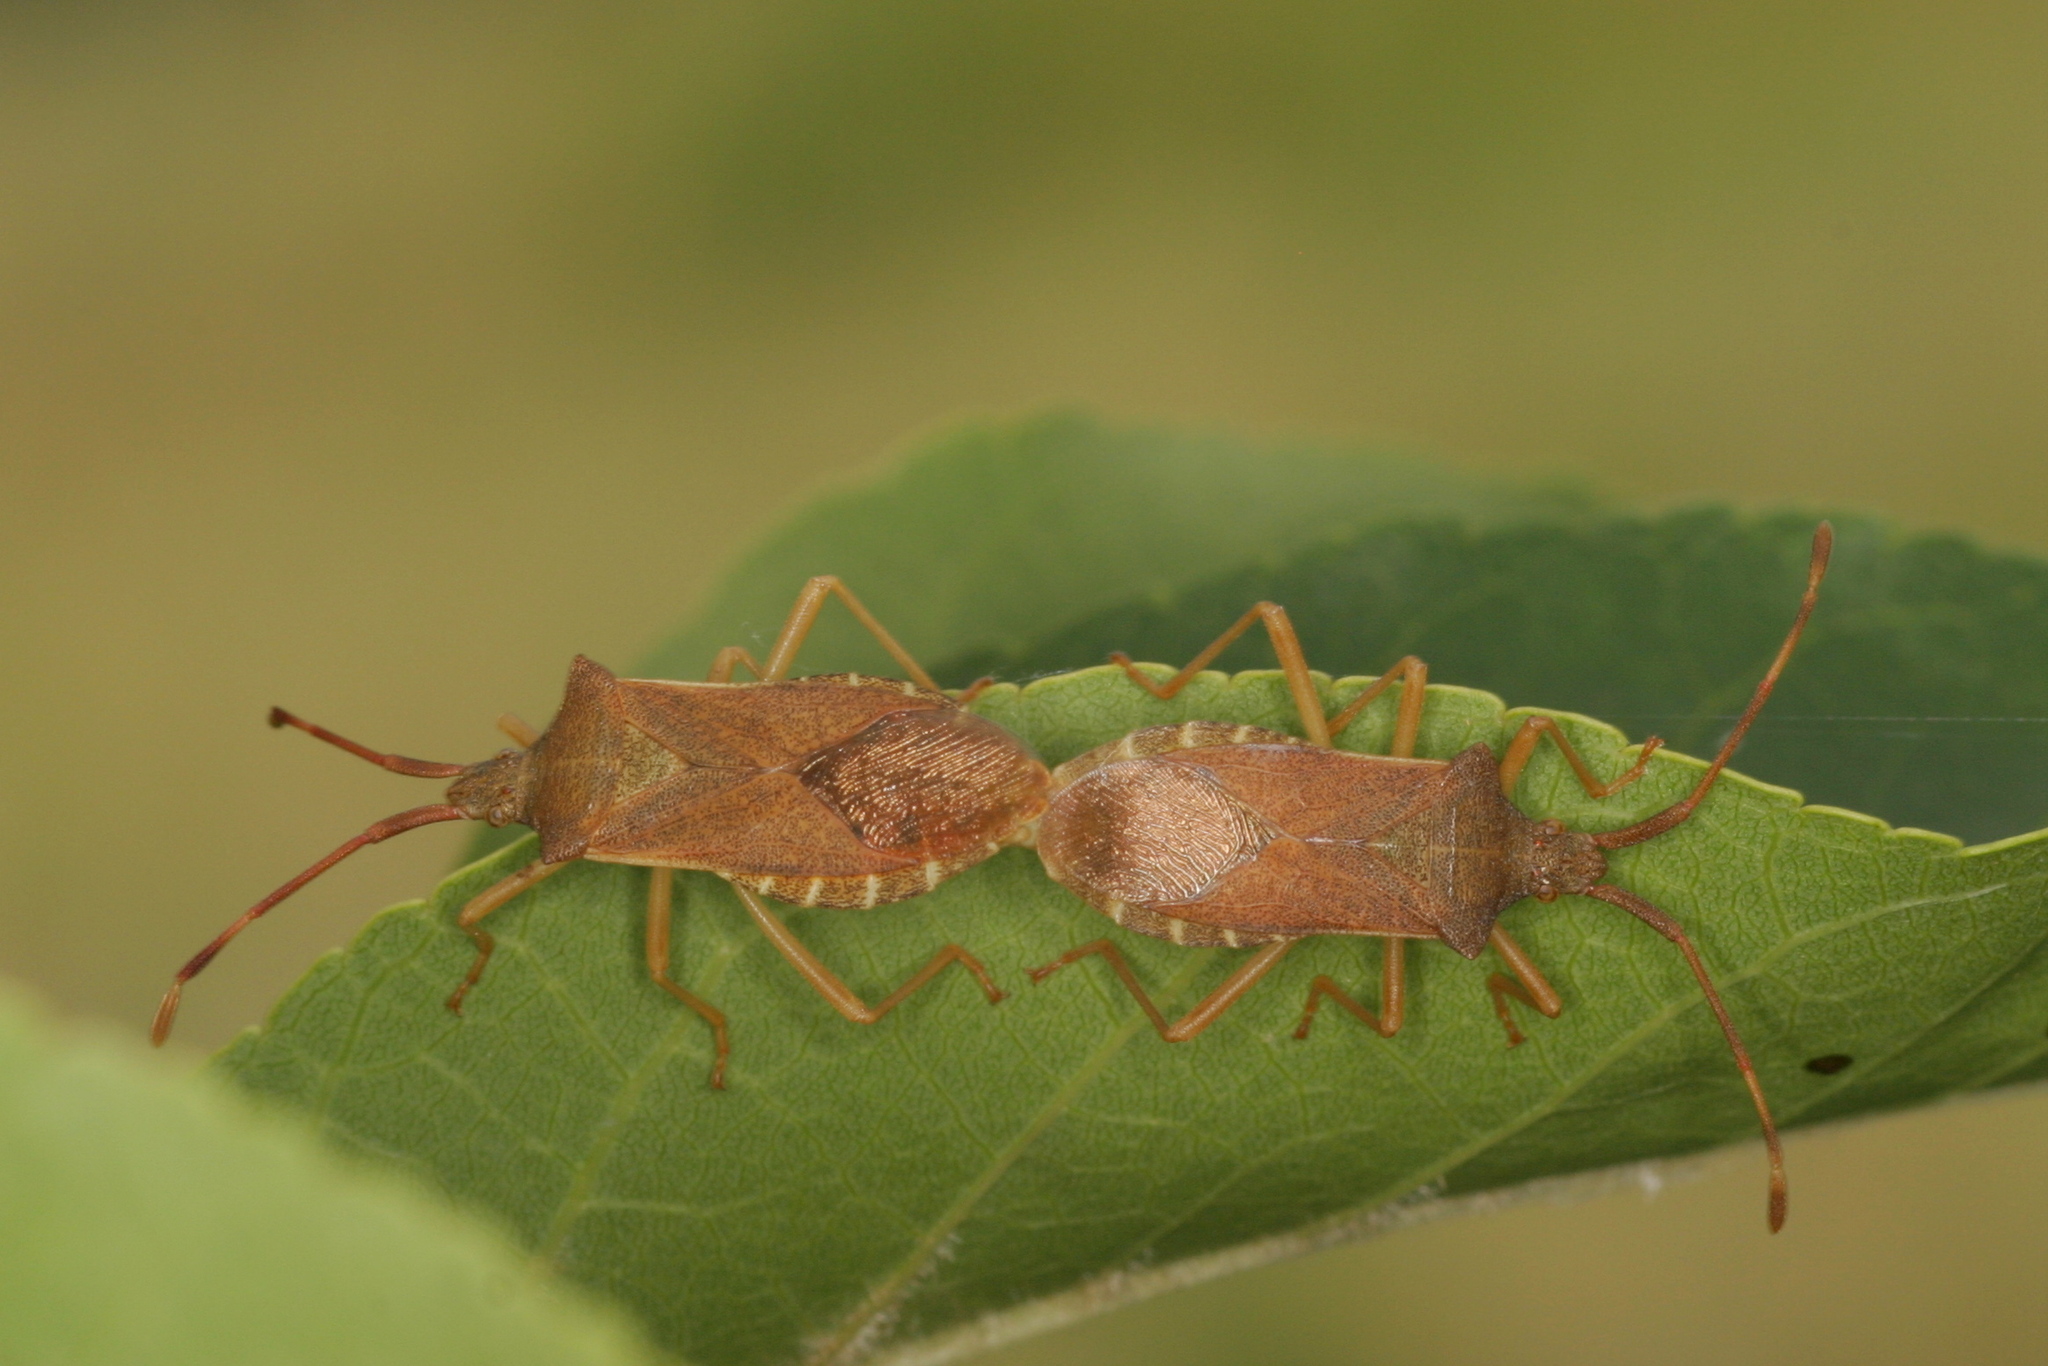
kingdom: Animalia
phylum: Arthropoda
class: Insecta
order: Hemiptera
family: Coreidae
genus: Gonocerus
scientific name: Gonocerus acuteangulatus
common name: Box bug
